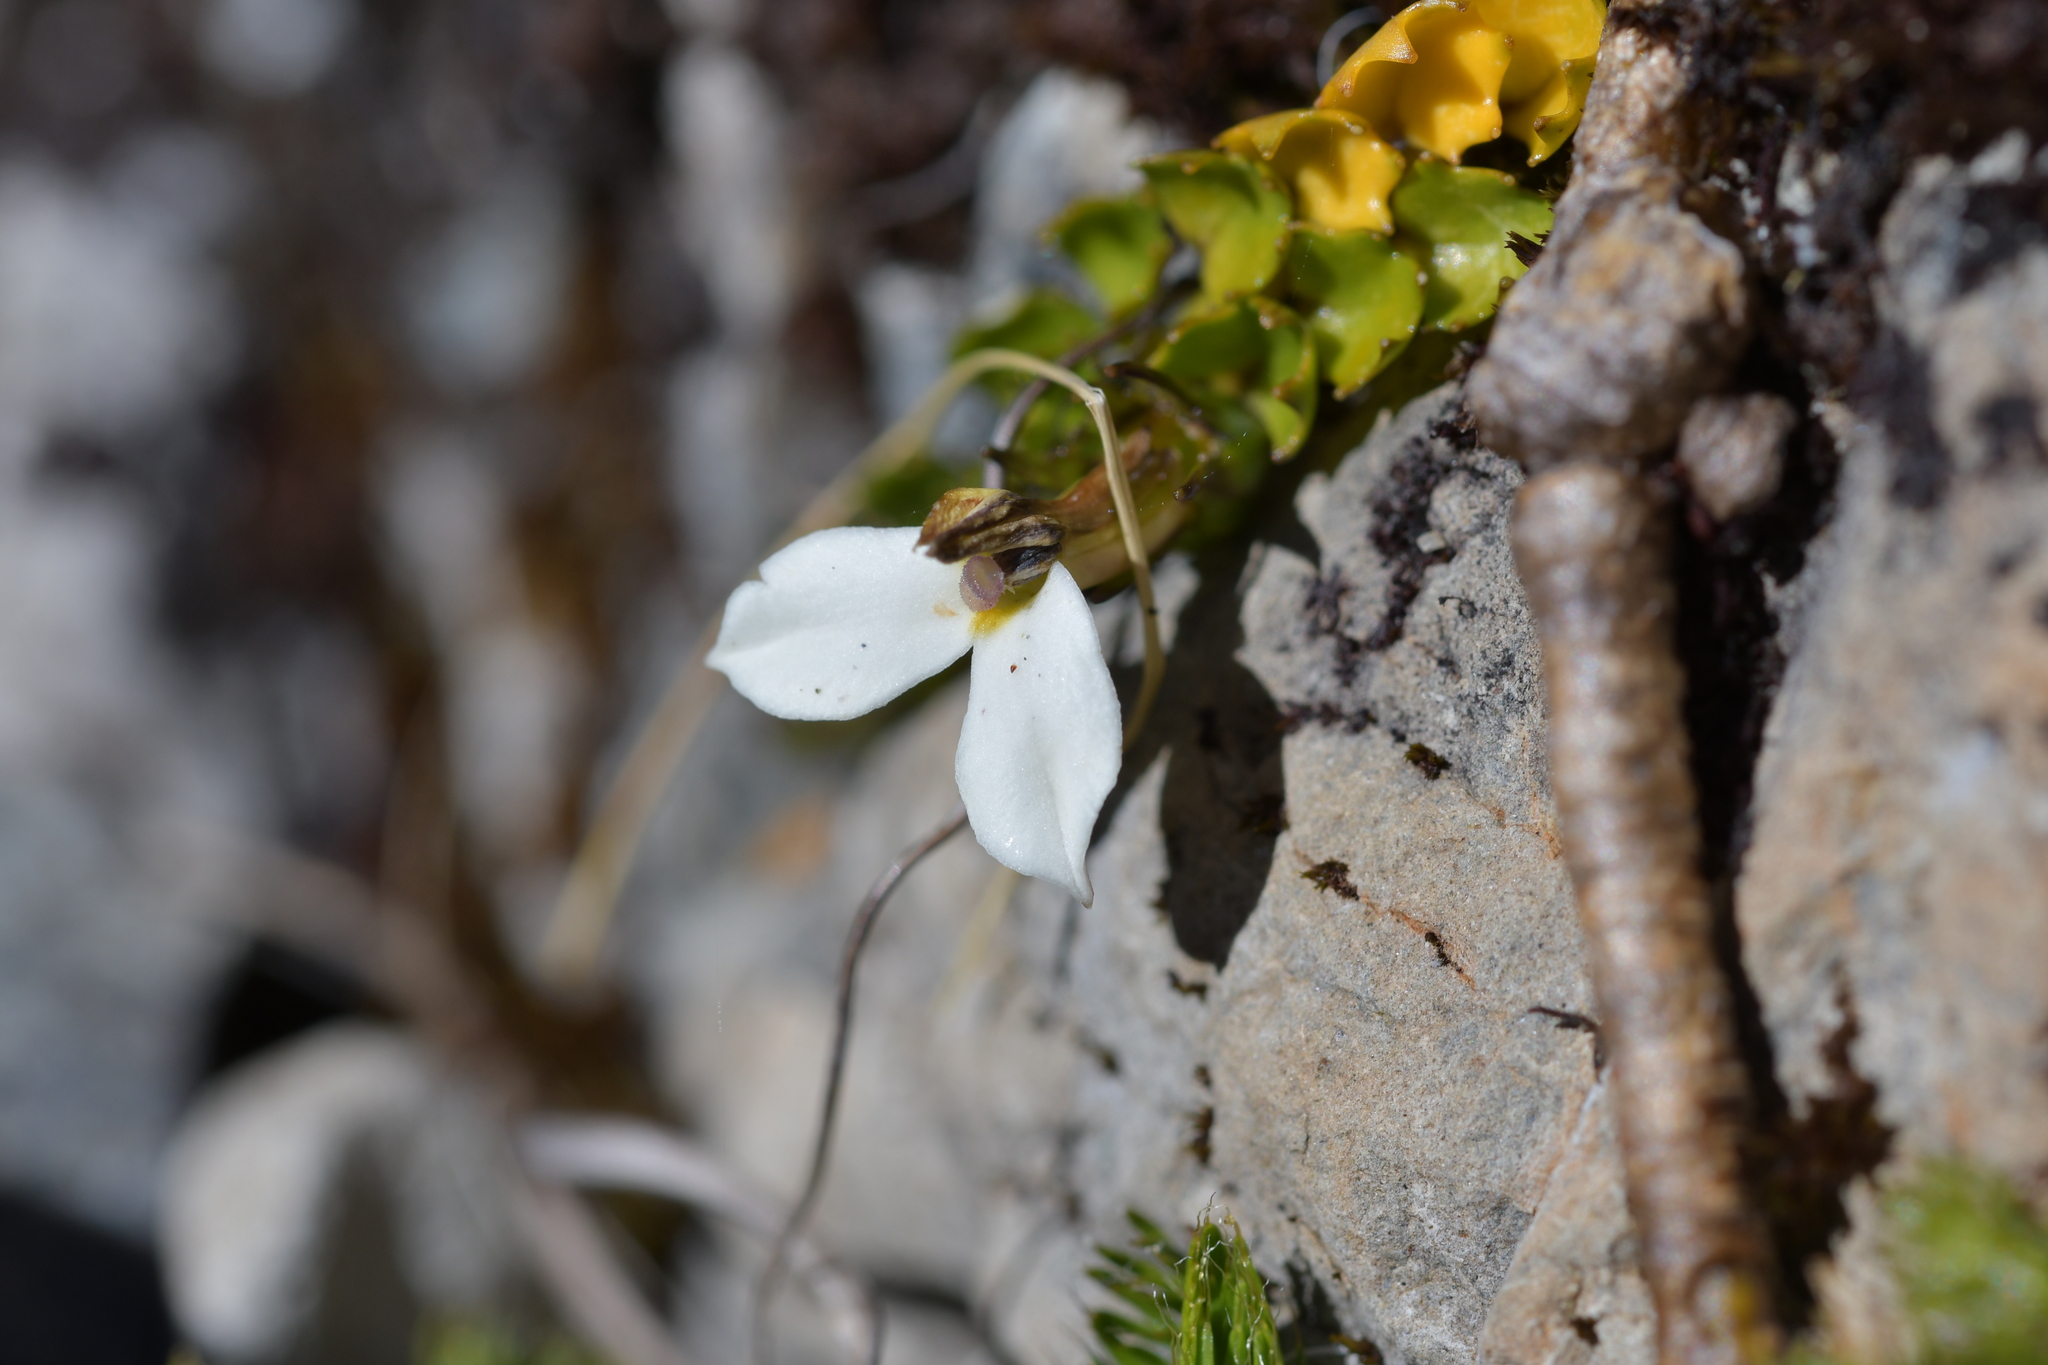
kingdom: Plantae
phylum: Tracheophyta
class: Magnoliopsida
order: Asterales
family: Campanulaceae
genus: Lobelia
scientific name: Lobelia macrodon
